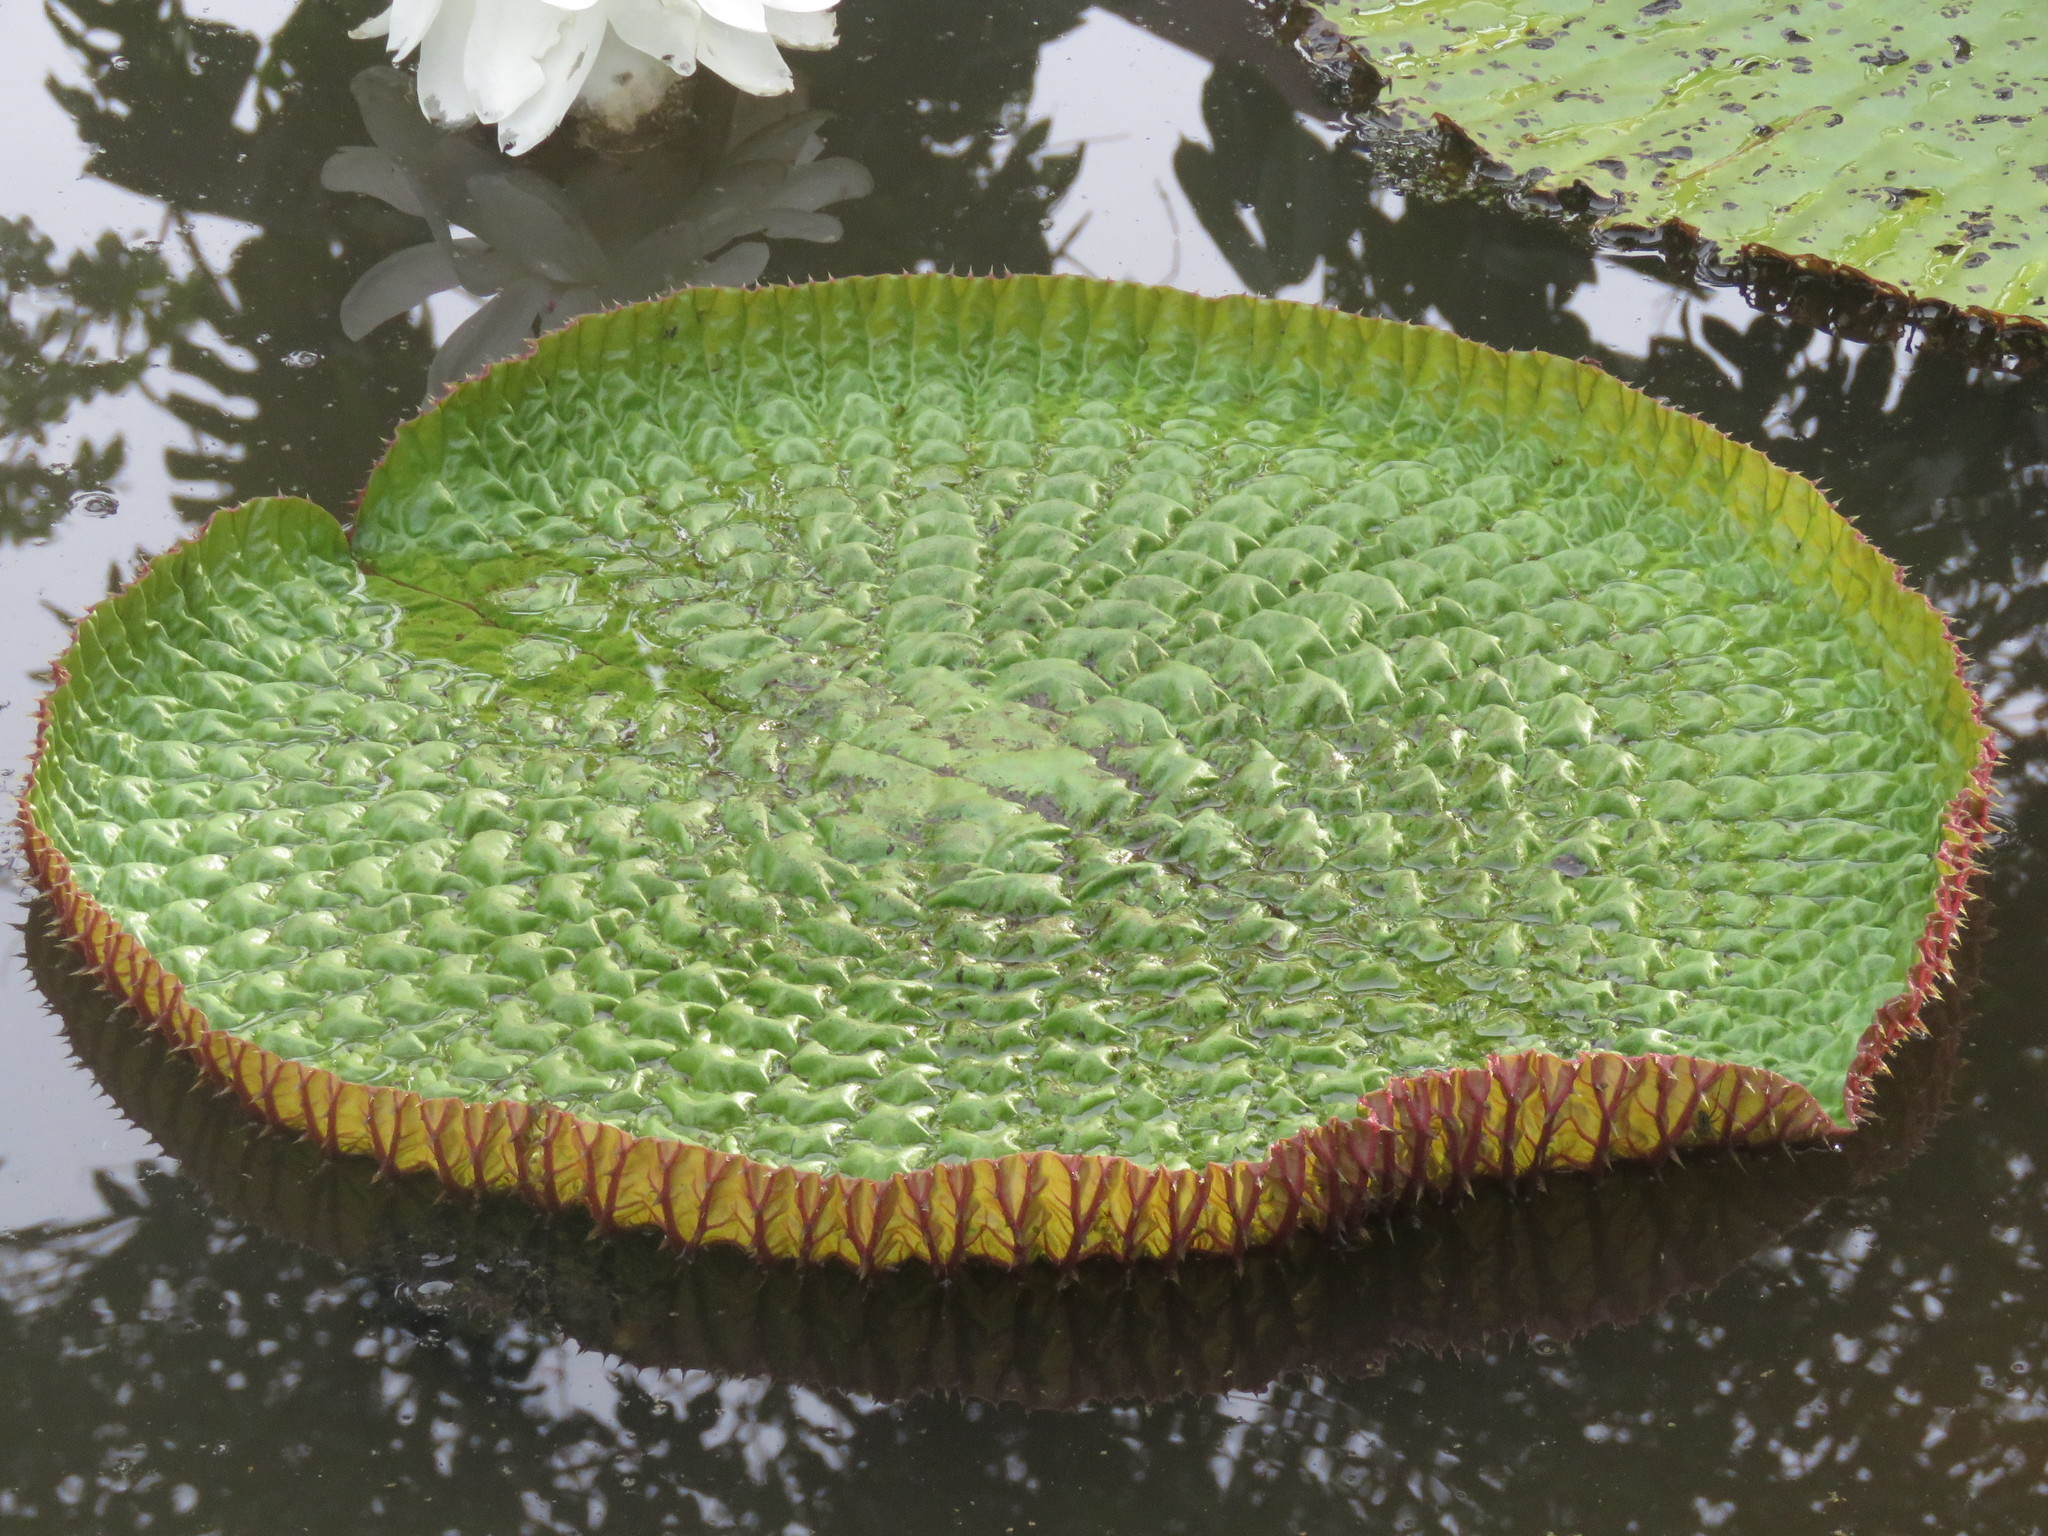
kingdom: Plantae
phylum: Tracheophyta
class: Magnoliopsida
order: Nymphaeales
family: Nymphaeaceae
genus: Victoria
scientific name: Victoria amazonica
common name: Amazon water-lily
